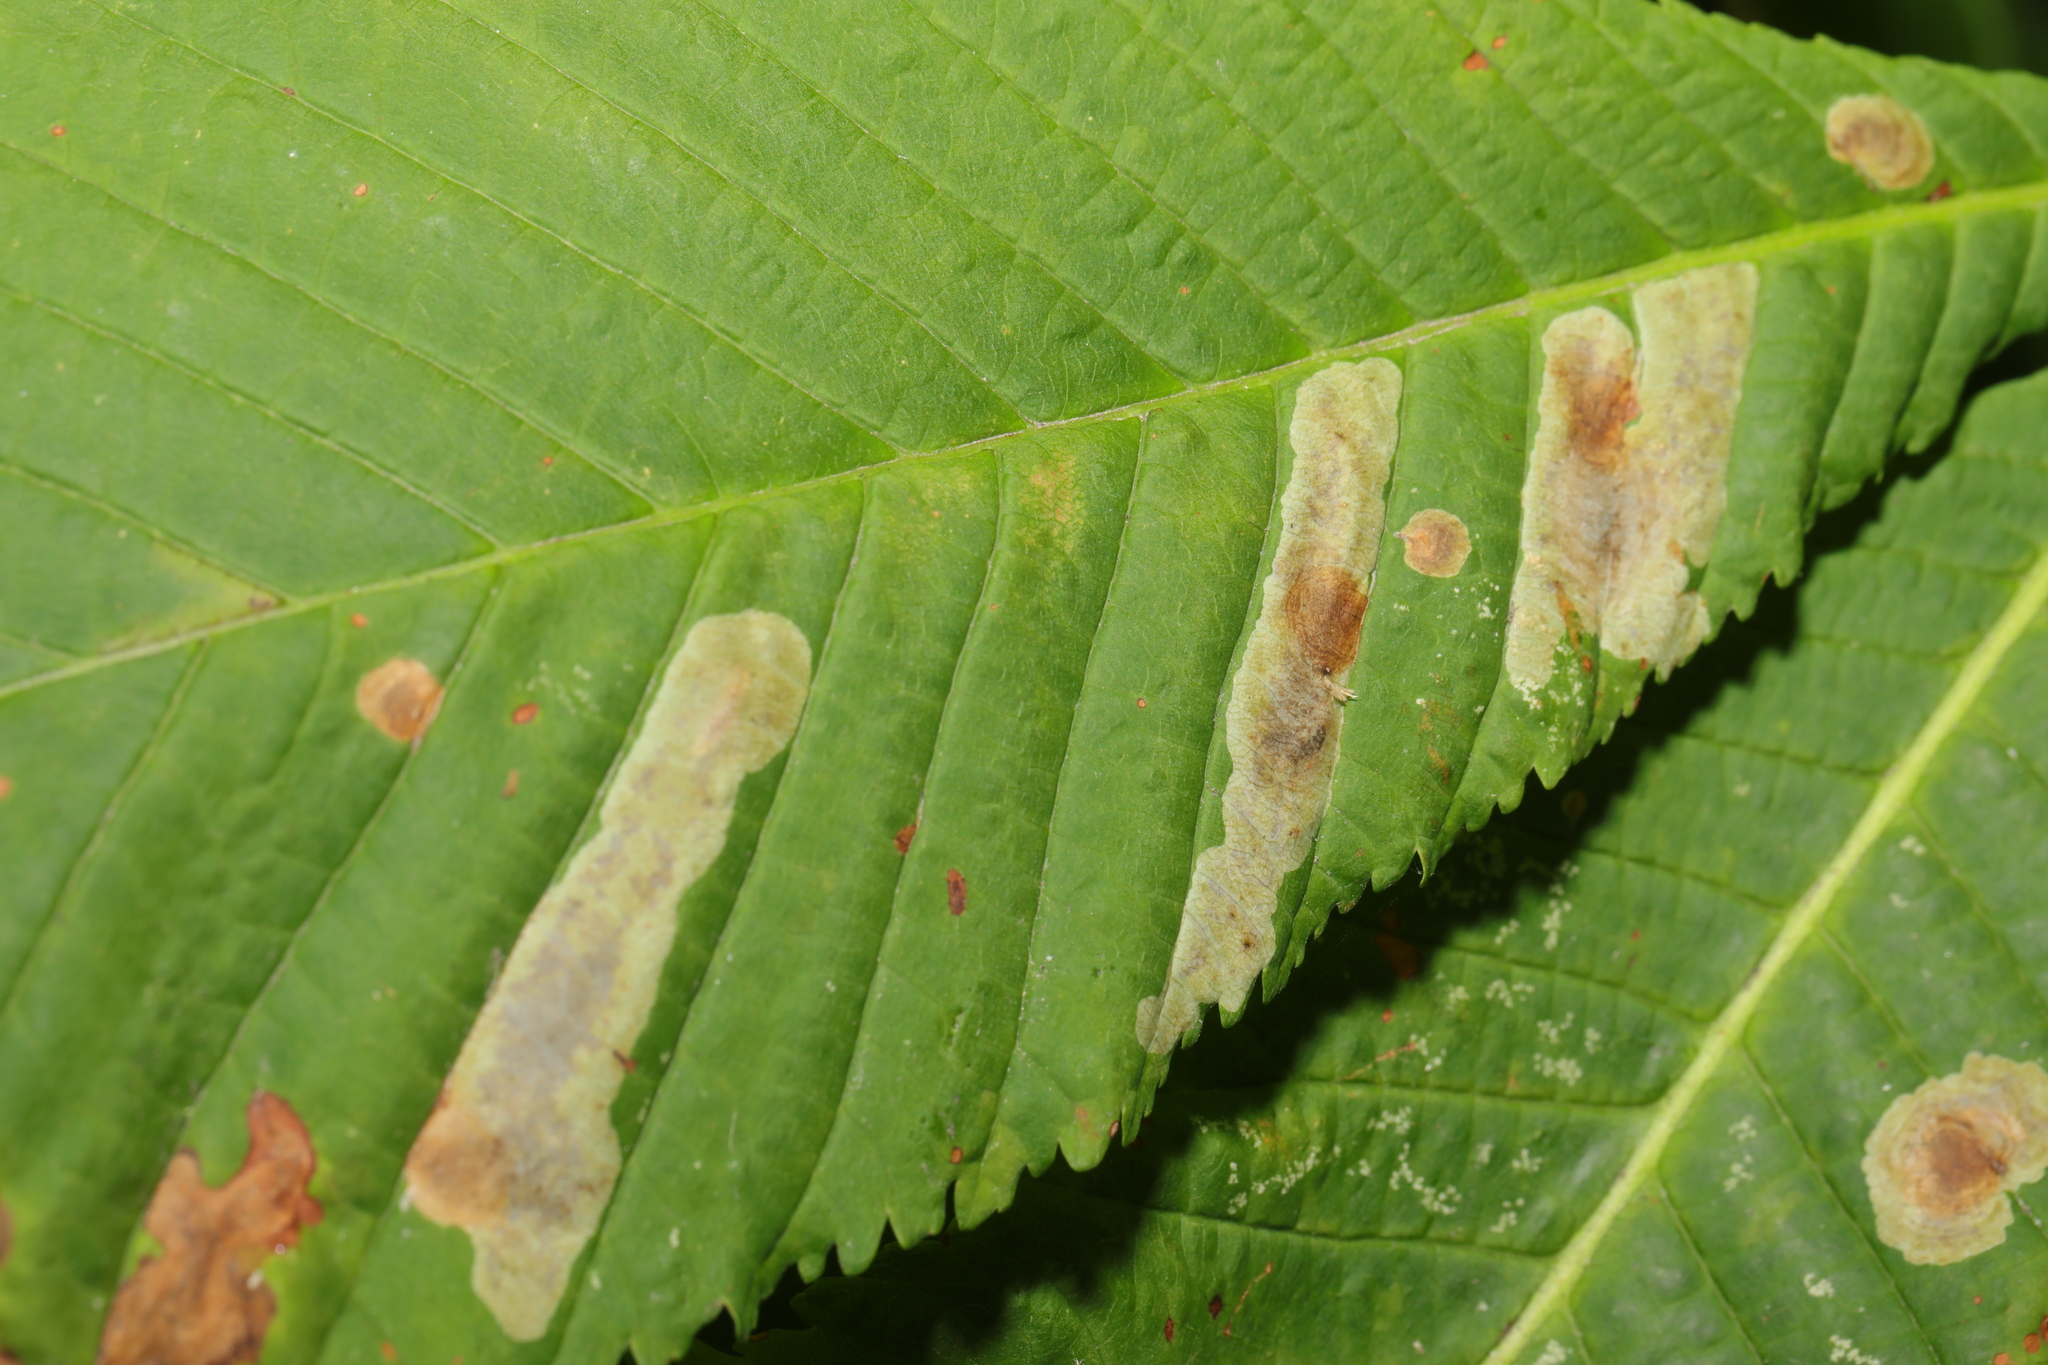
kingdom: Animalia
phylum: Arthropoda
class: Insecta
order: Lepidoptera
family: Gracillariidae
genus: Cameraria
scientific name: Cameraria ohridella
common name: Horse-chestnut leaf-miner
